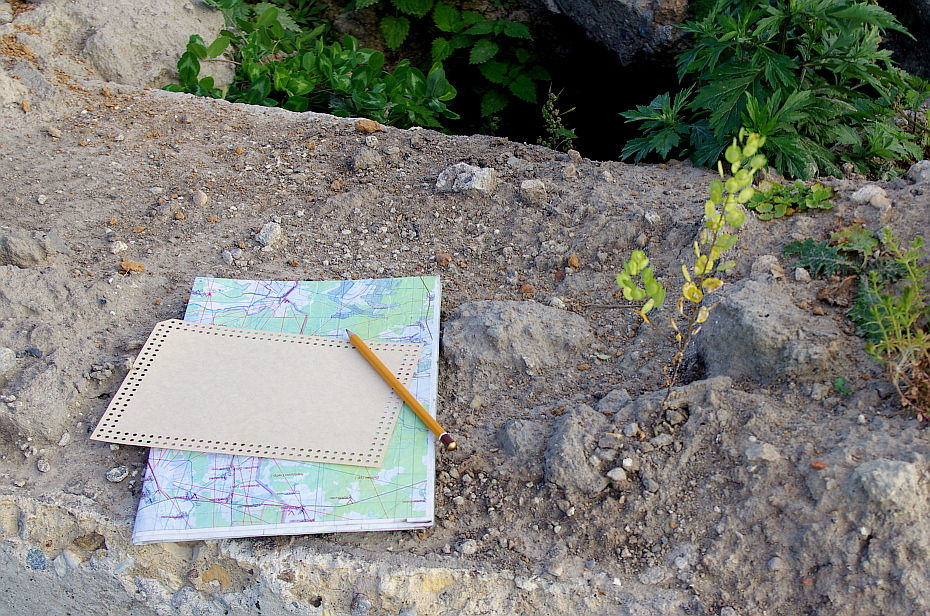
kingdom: Plantae
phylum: Tracheophyta
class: Magnoliopsida
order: Brassicales
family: Brassicaceae
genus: Thlaspi
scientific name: Thlaspi arvense
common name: Field pennycress
